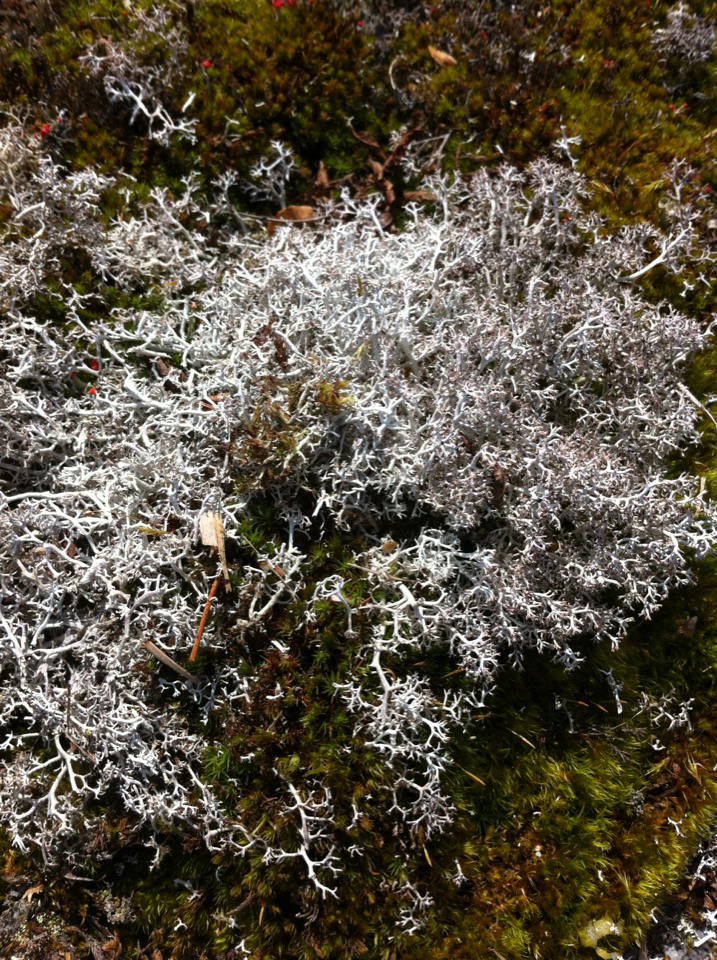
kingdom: Fungi
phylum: Ascomycota
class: Lecanoromycetes
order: Lecanorales
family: Cladoniaceae
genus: Cladonia
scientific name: Cladonia rangiferina
